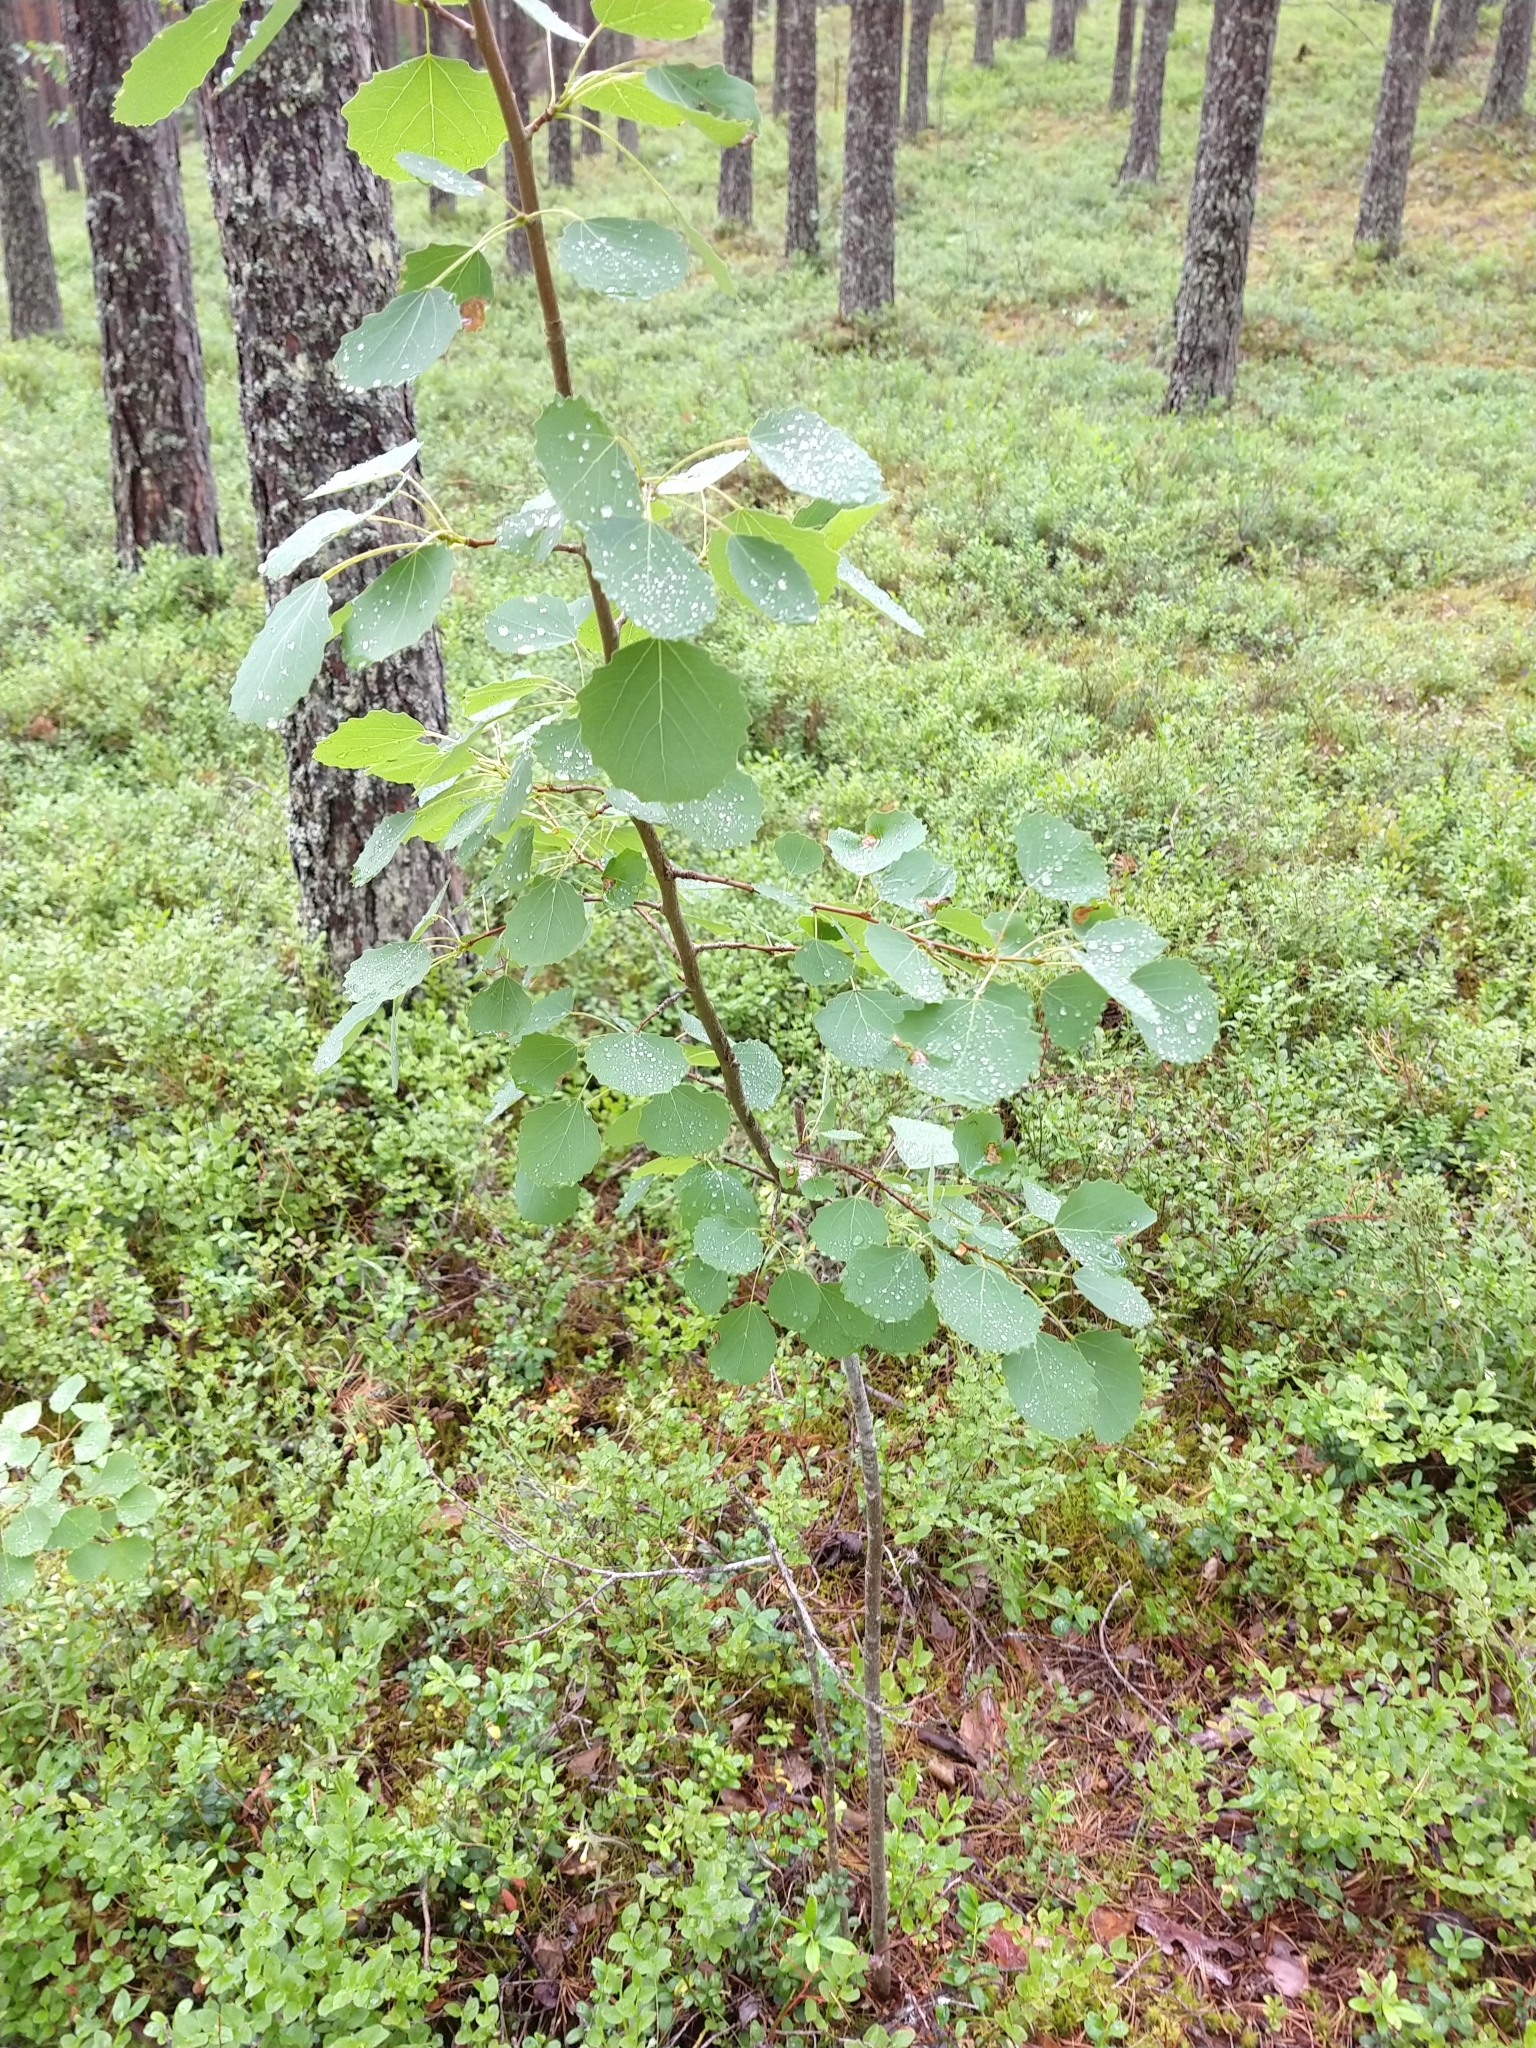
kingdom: Plantae
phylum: Tracheophyta
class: Magnoliopsida
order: Malpighiales
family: Salicaceae
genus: Populus
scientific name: Populus tremula
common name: European aspen
